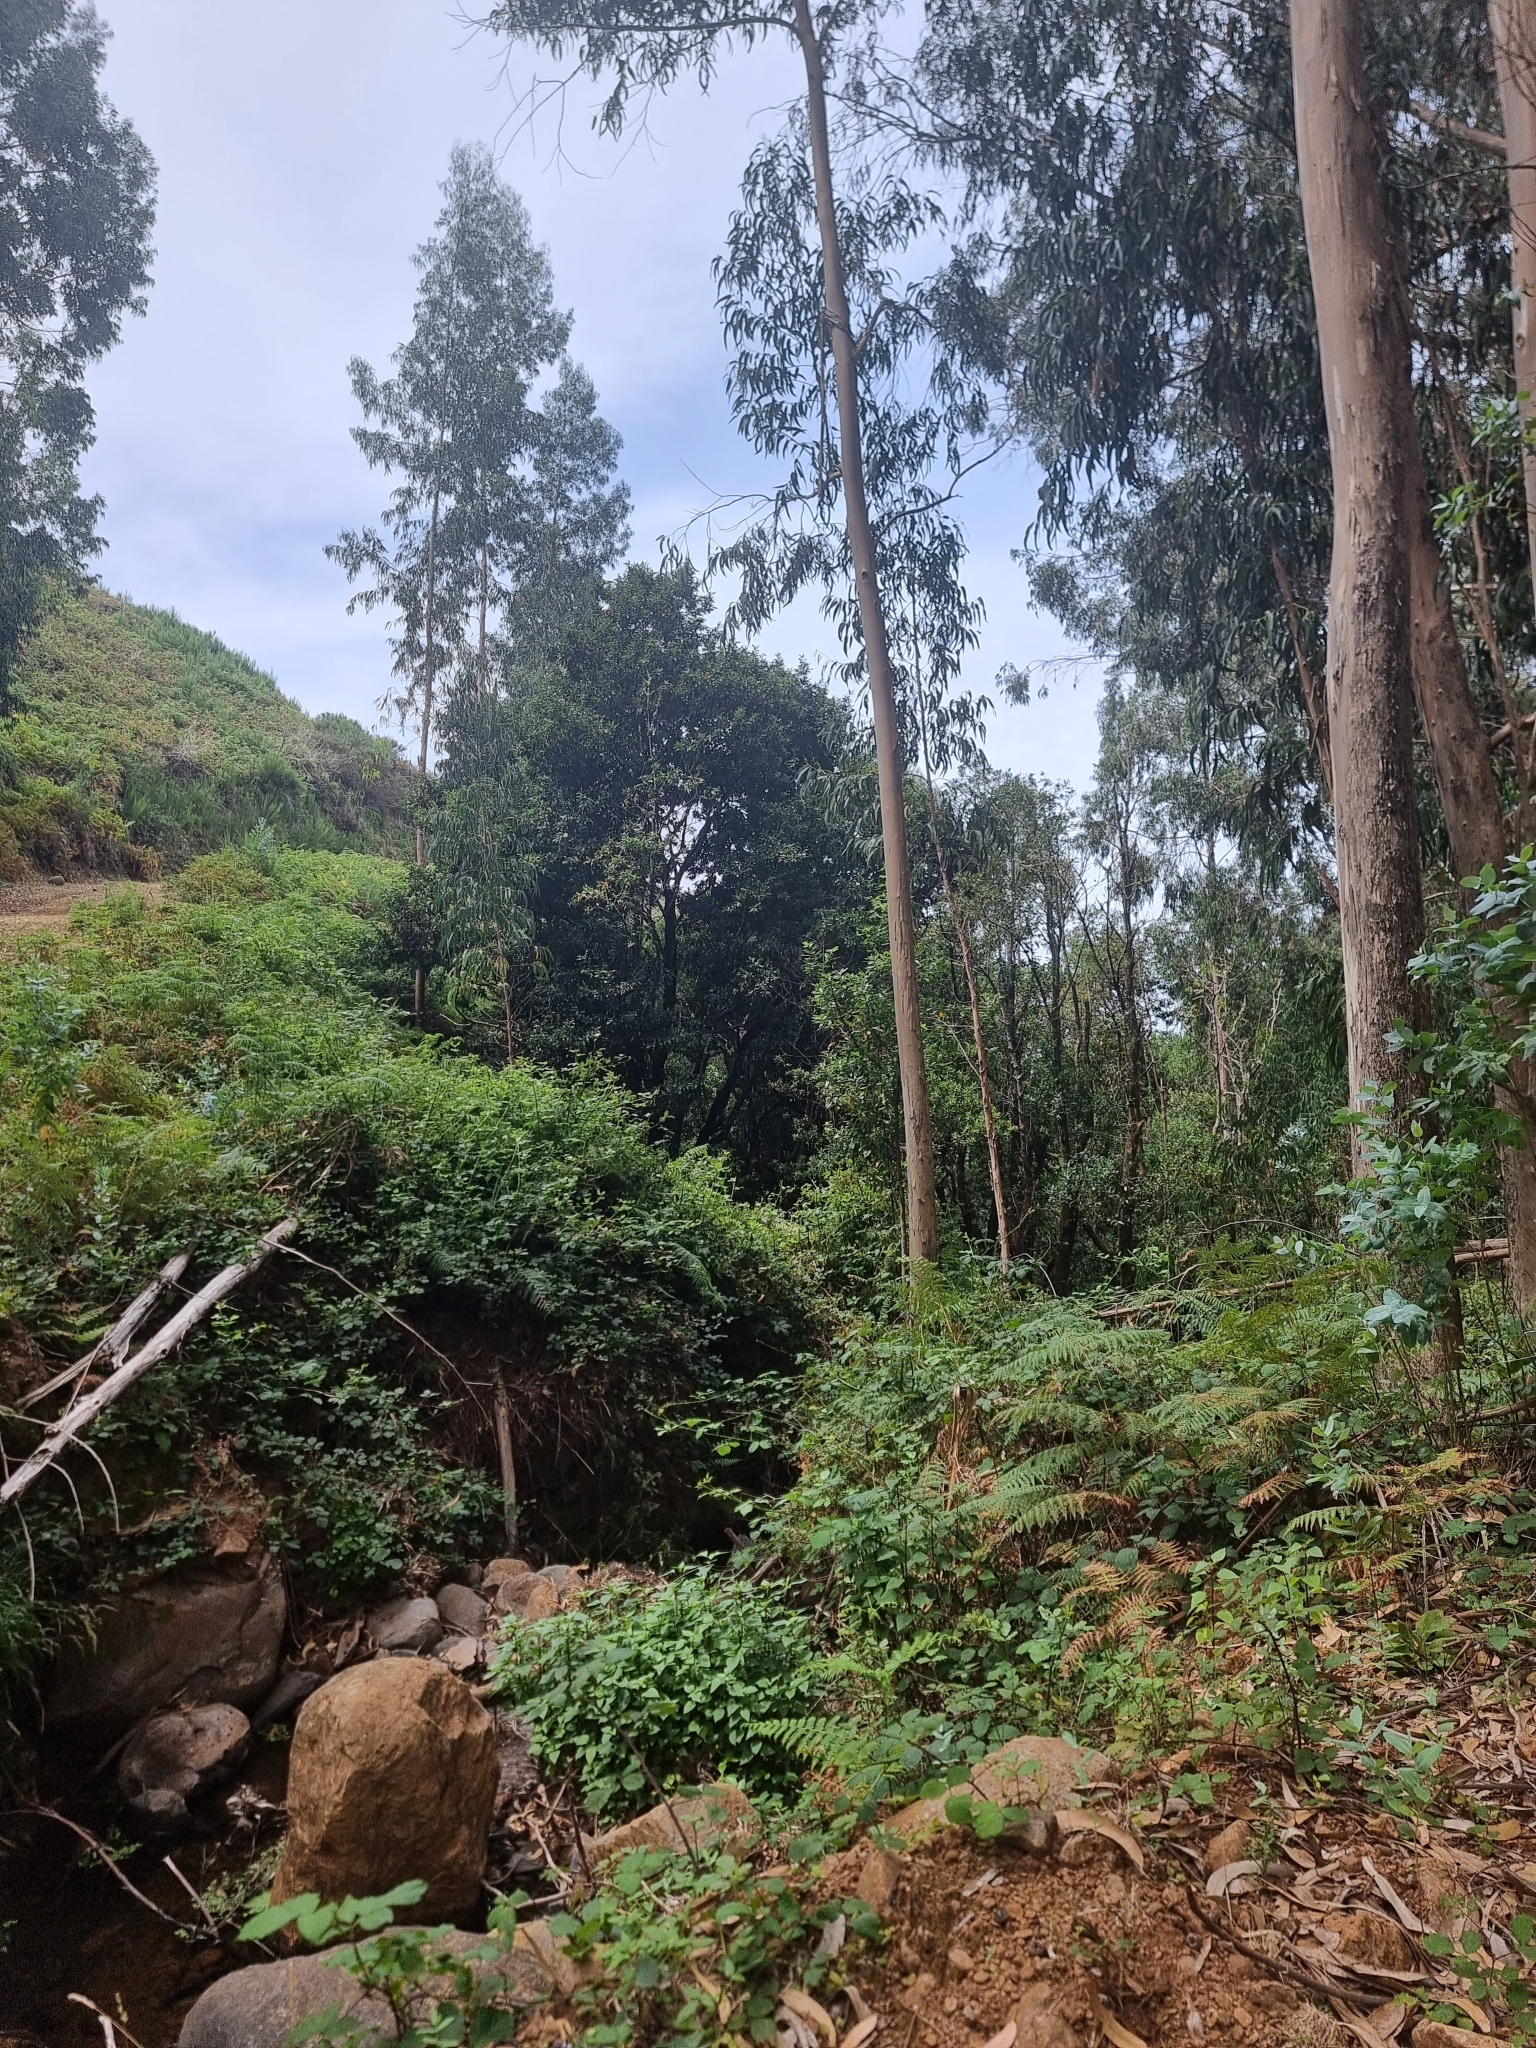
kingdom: Plantae
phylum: Tracheophyta
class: Magnoliopsida
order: Laurales
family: Lauraceae
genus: Laurus
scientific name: Laurus novocanariensis
